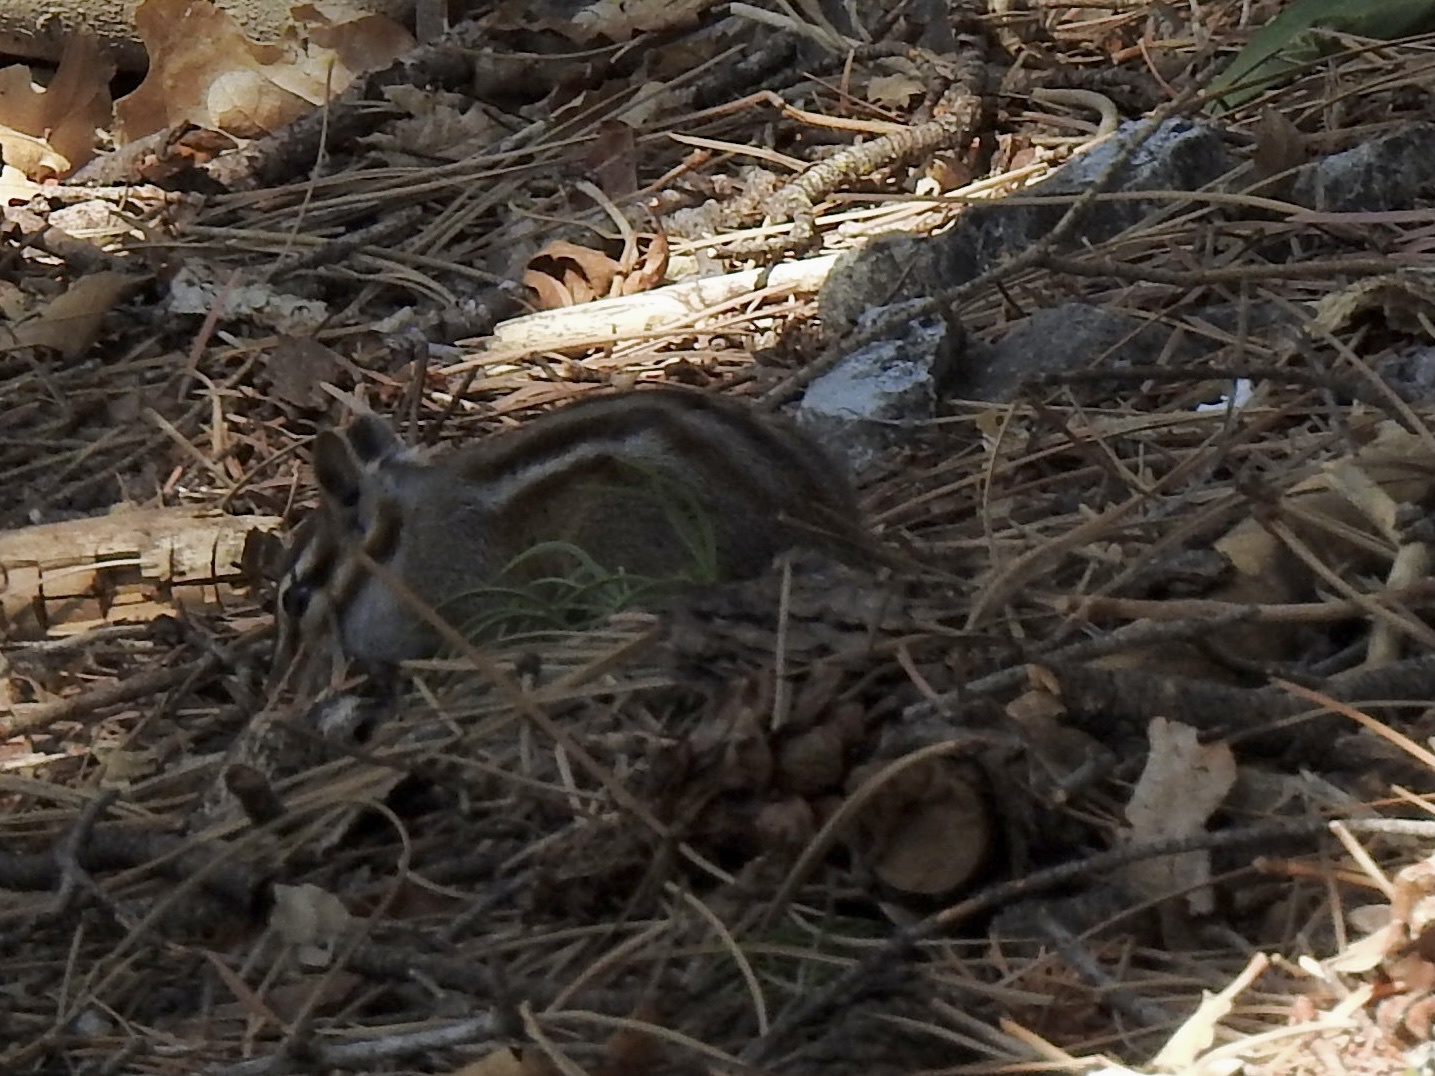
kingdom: Animalia
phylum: Chordata
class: Mammalia
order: Rodentia
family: Sciuridae
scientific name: Sciuridae
